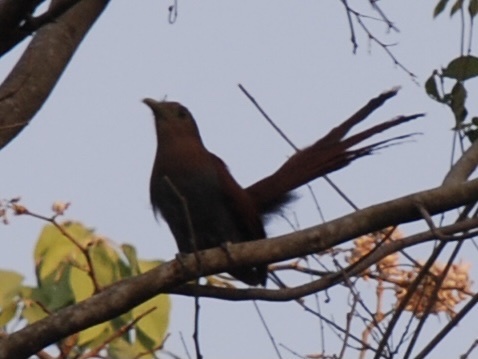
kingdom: Animalia
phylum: Chordata
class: Aves
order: Cuculiformes
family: Cuculidae
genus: Piaya
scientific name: Piaya cayana
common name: Squirrel cuckoo
